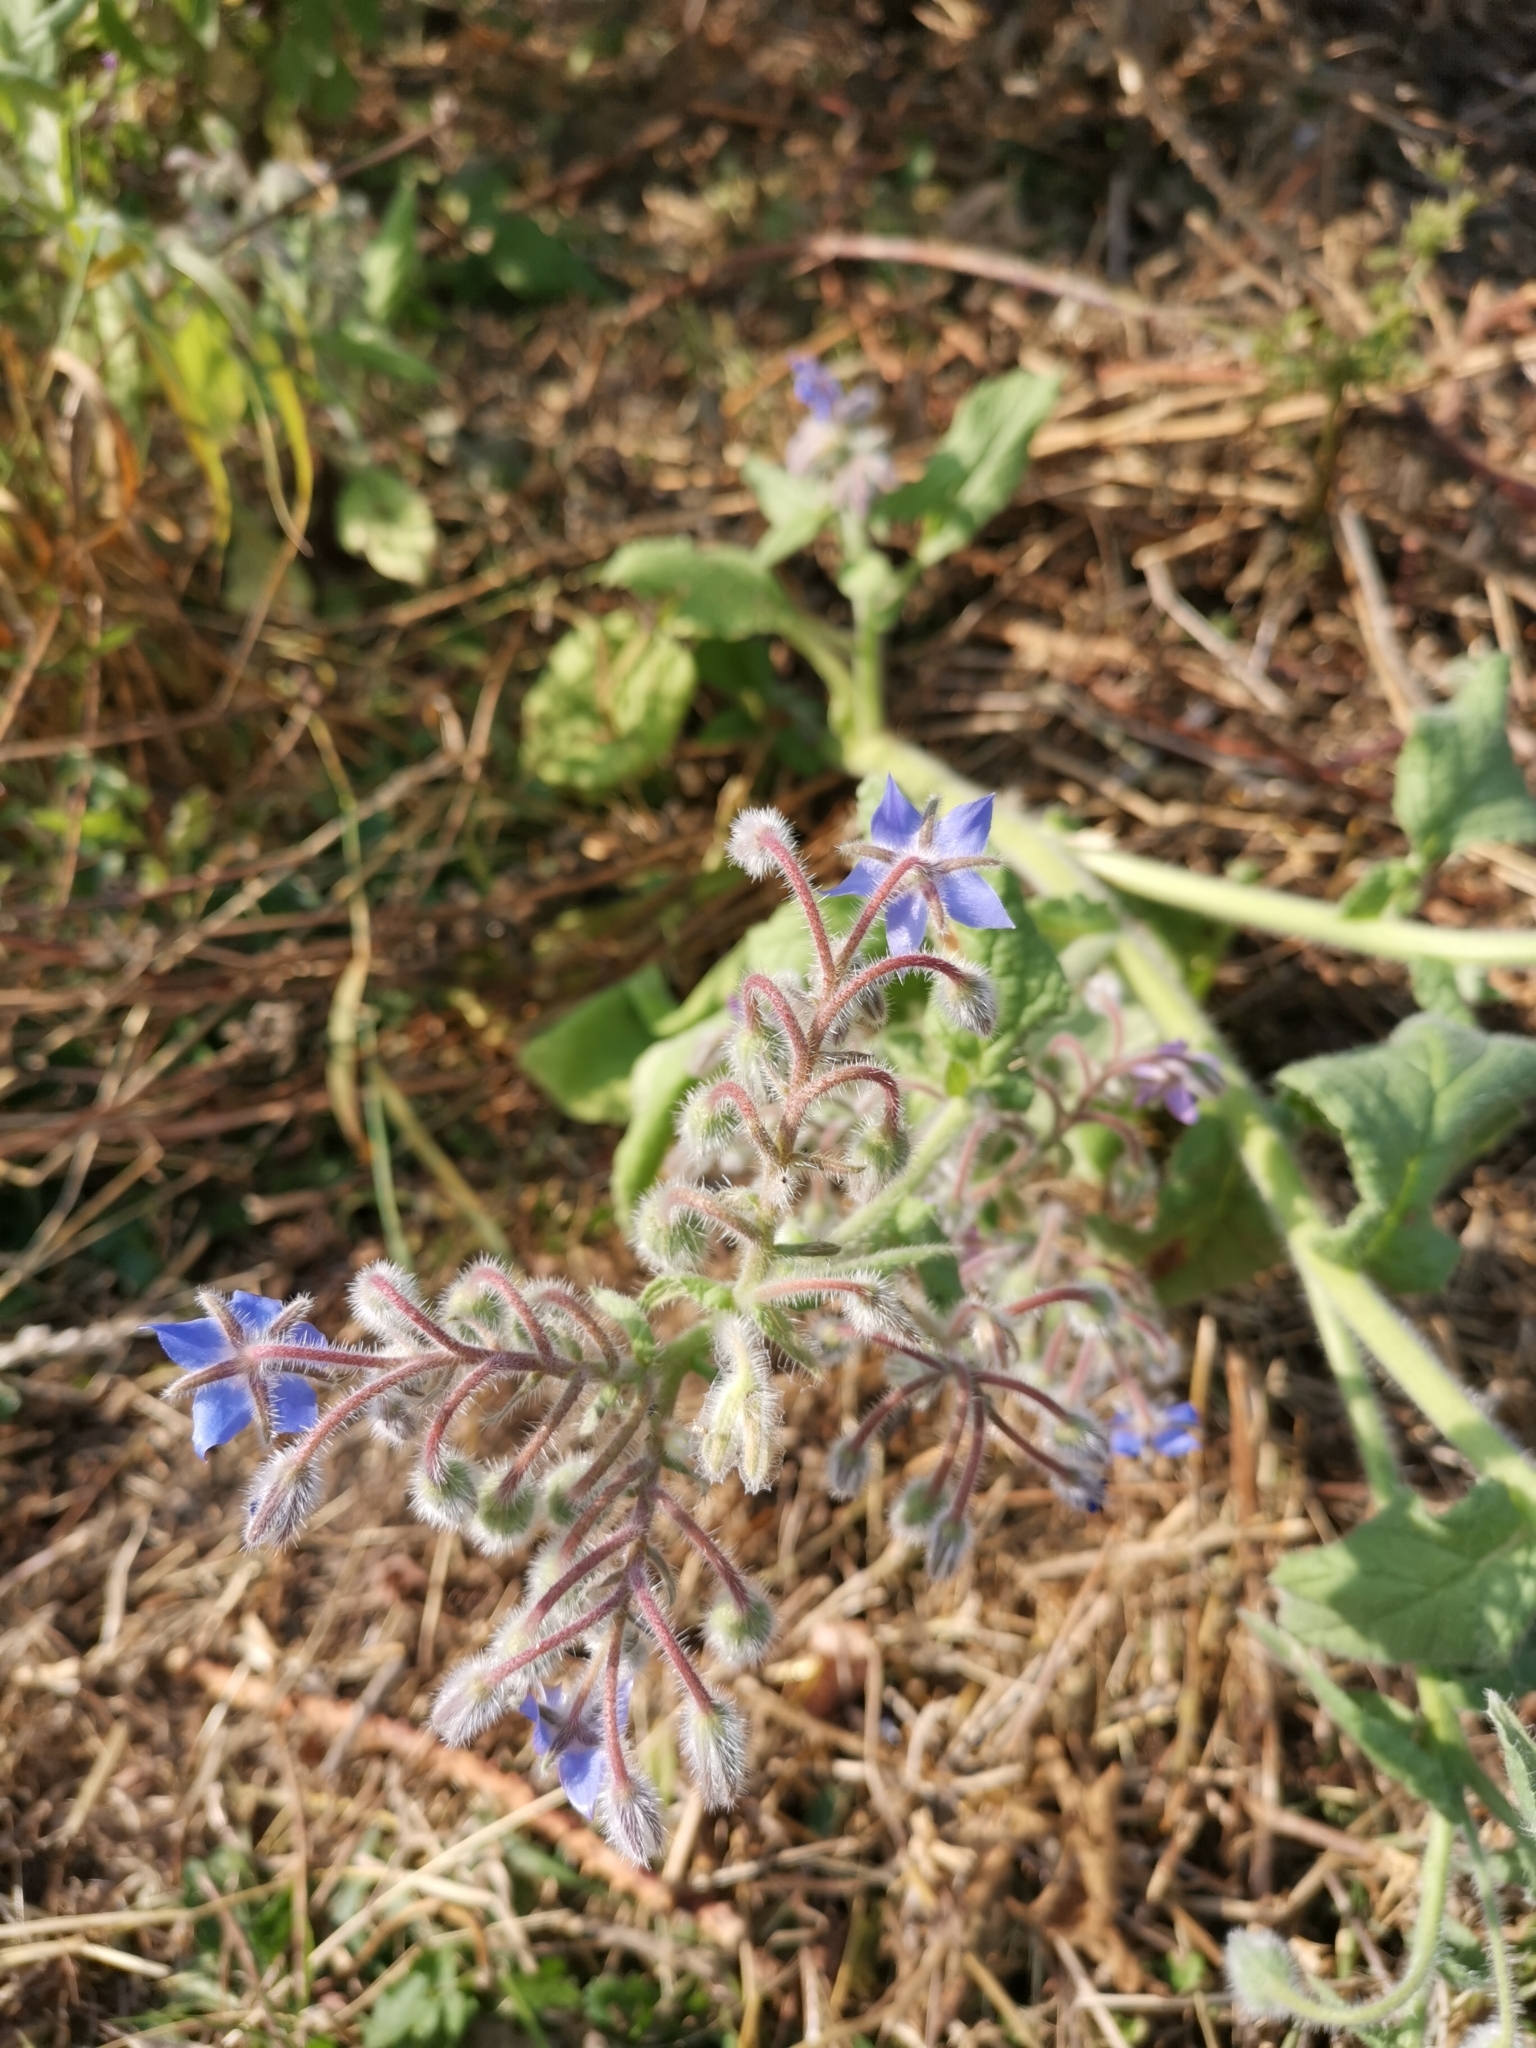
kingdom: Plantae
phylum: Tracheophyta
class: Magnoliopsida
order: Boraginales
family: Boraginaceae
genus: Borago
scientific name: Borago officinalis
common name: Borage
